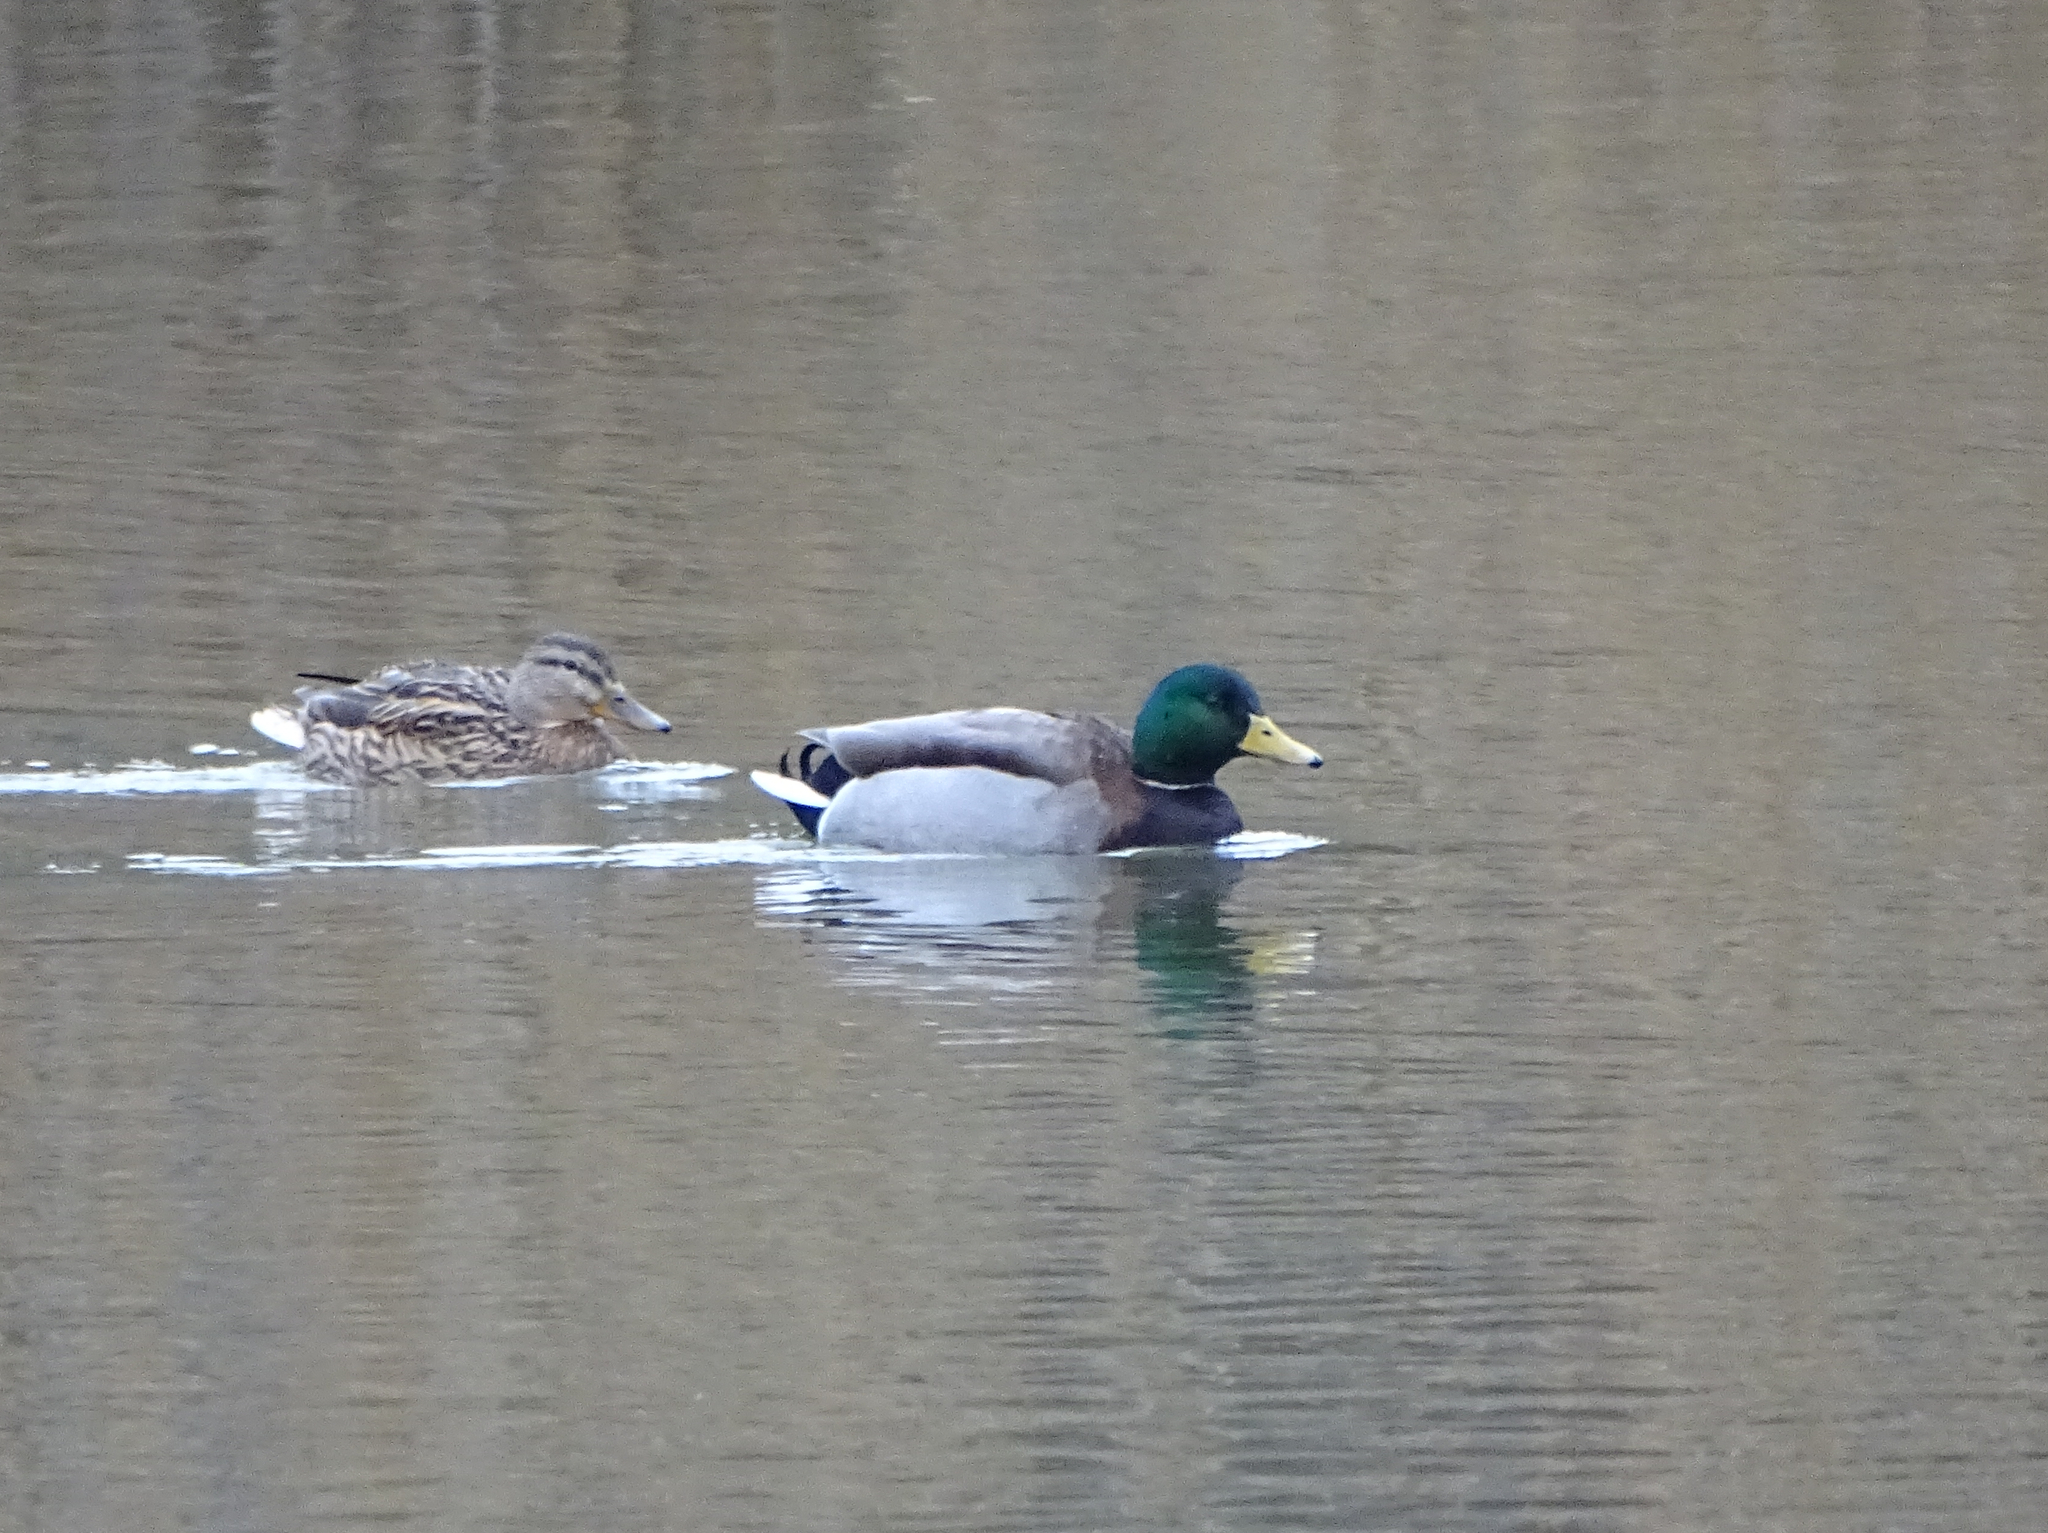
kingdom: Animalia
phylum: Chordata
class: Aves
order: Anseriformes
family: Anatidae
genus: Anas
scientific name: Anas platyrhynchos
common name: Mallard
